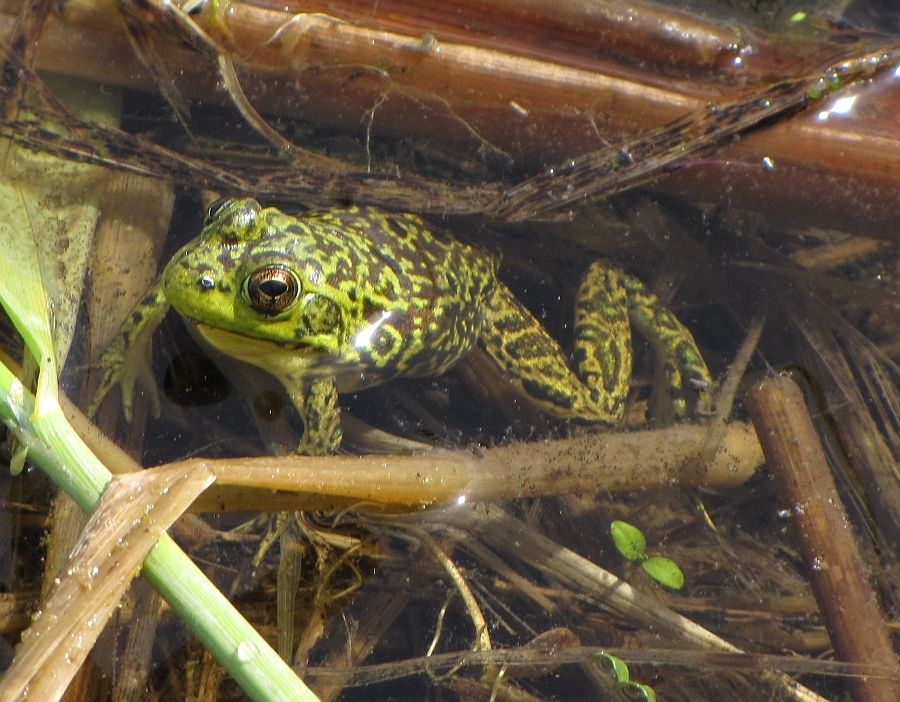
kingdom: Animalia
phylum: Chordata
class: Amphibia
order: Anura
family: Ranidae
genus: Lithobates
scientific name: Lithobates septentrionalis
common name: Mink frog
